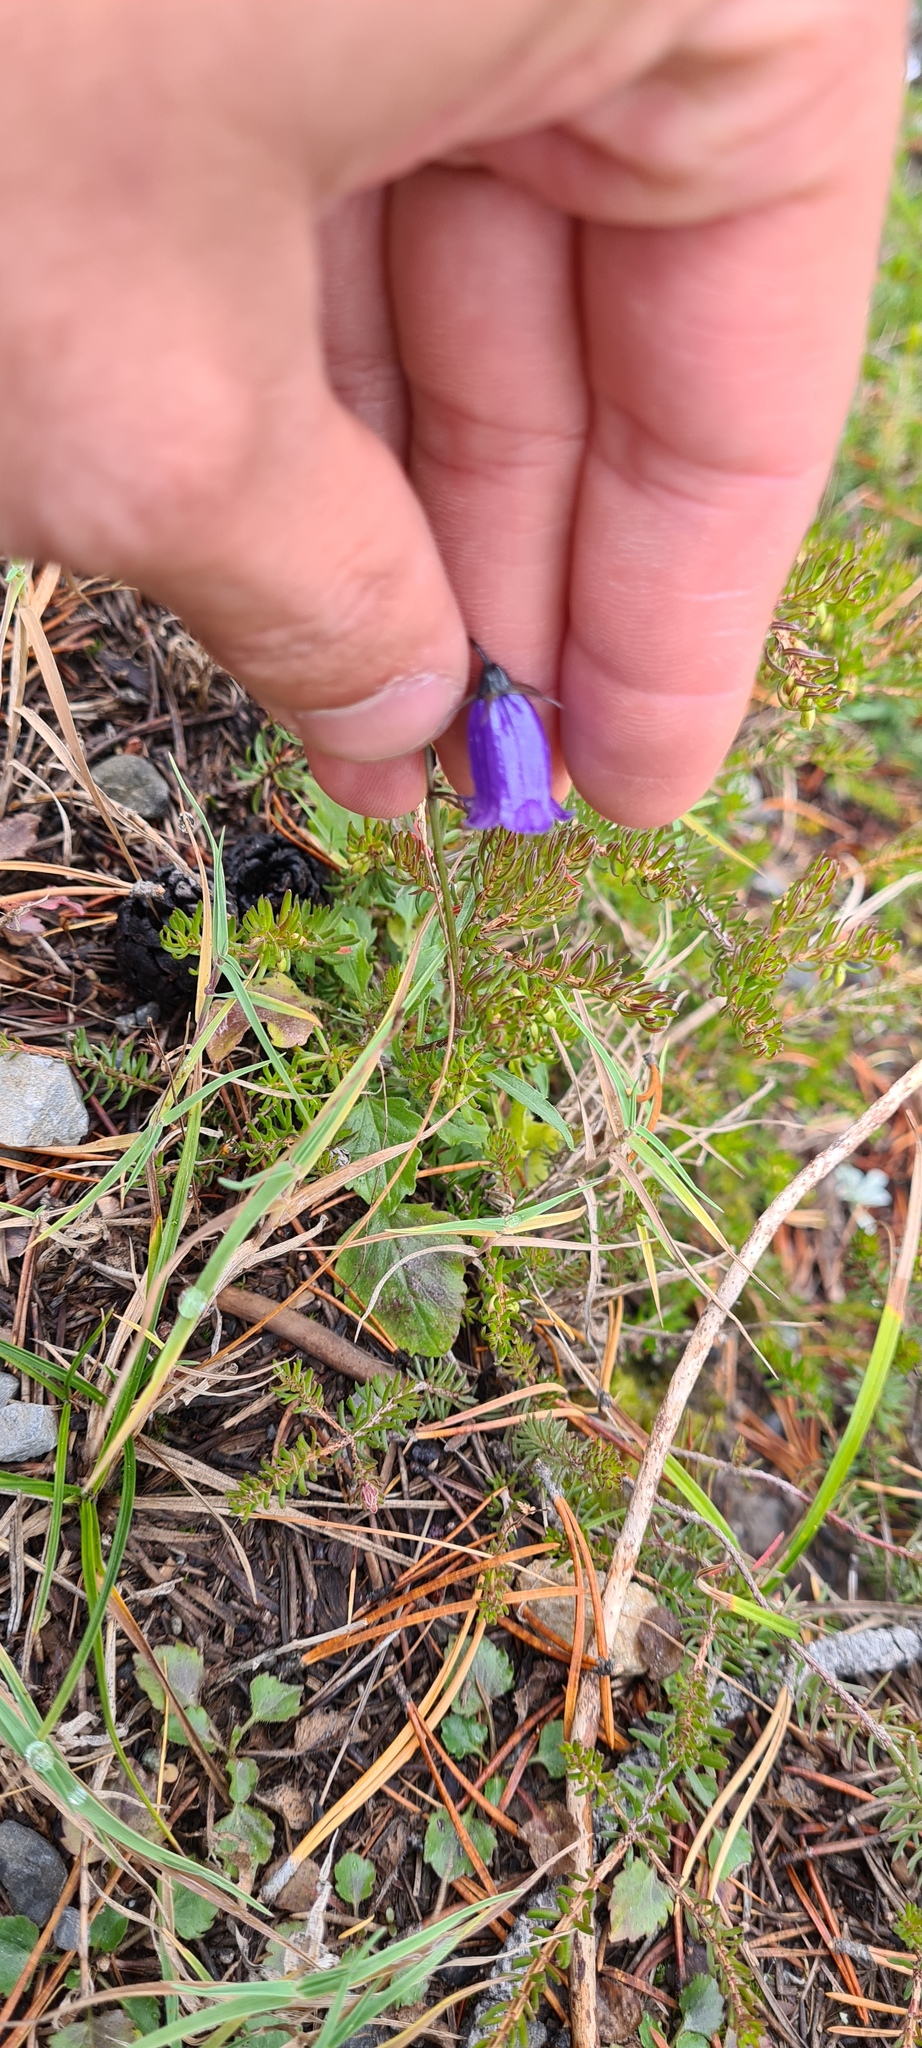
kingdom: Plantae
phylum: Tracheophyta
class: Magnoliopsida
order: Asterales
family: Campanulaceae
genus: Campanula
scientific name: Campanula scheuchzeri
